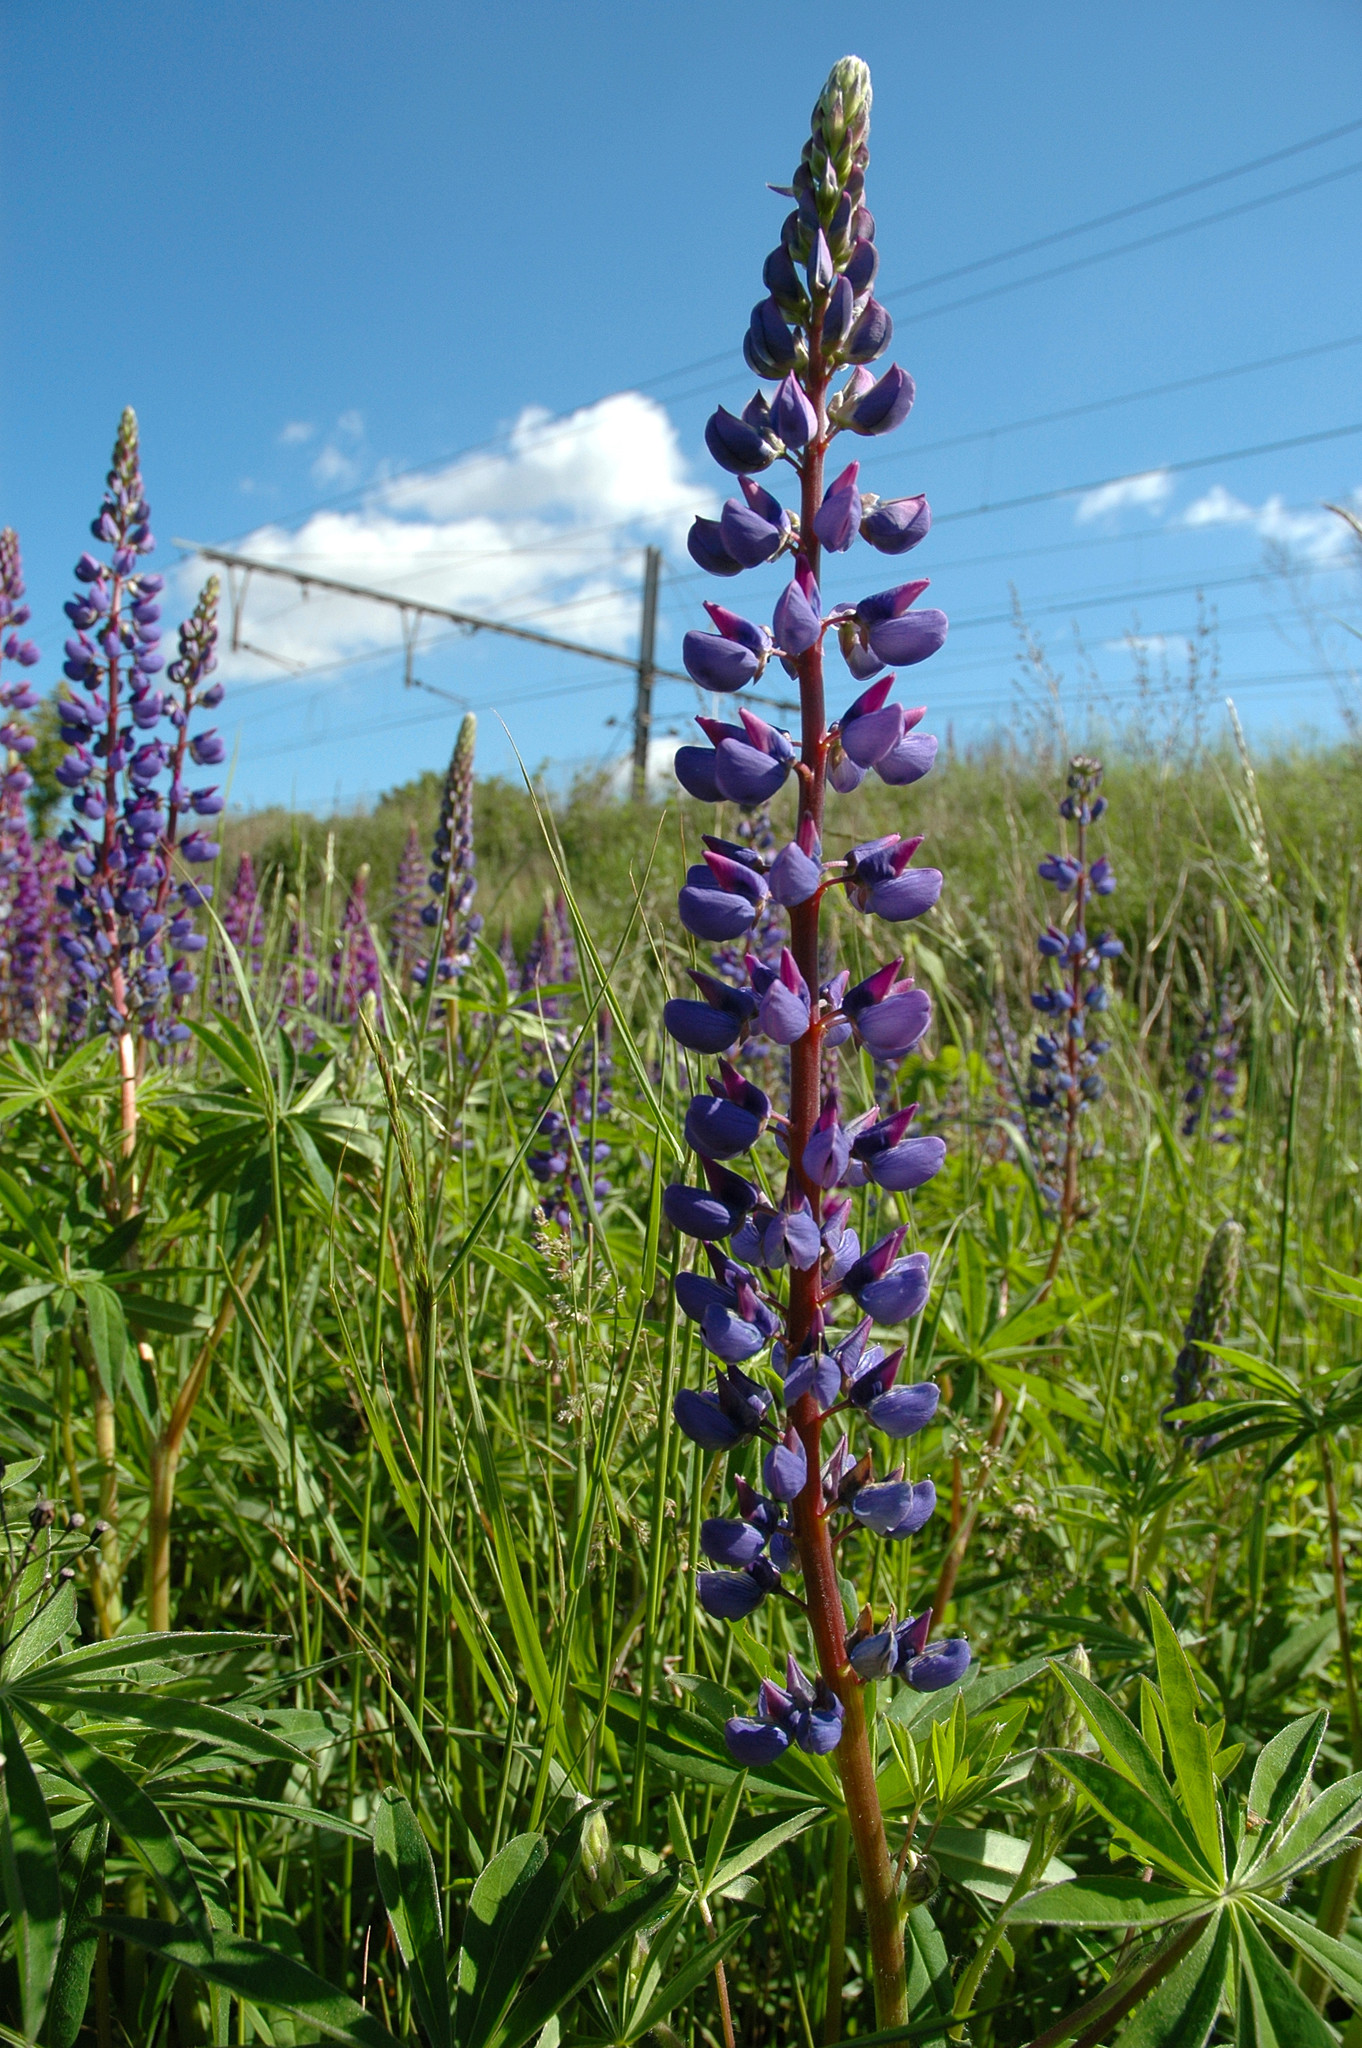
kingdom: Plantae
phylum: Tracheophyta
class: Magnoliopsida
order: Fabales
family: Fabaceae
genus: Lupinus
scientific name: Lupinus polyphyllus
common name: Garden lupin
